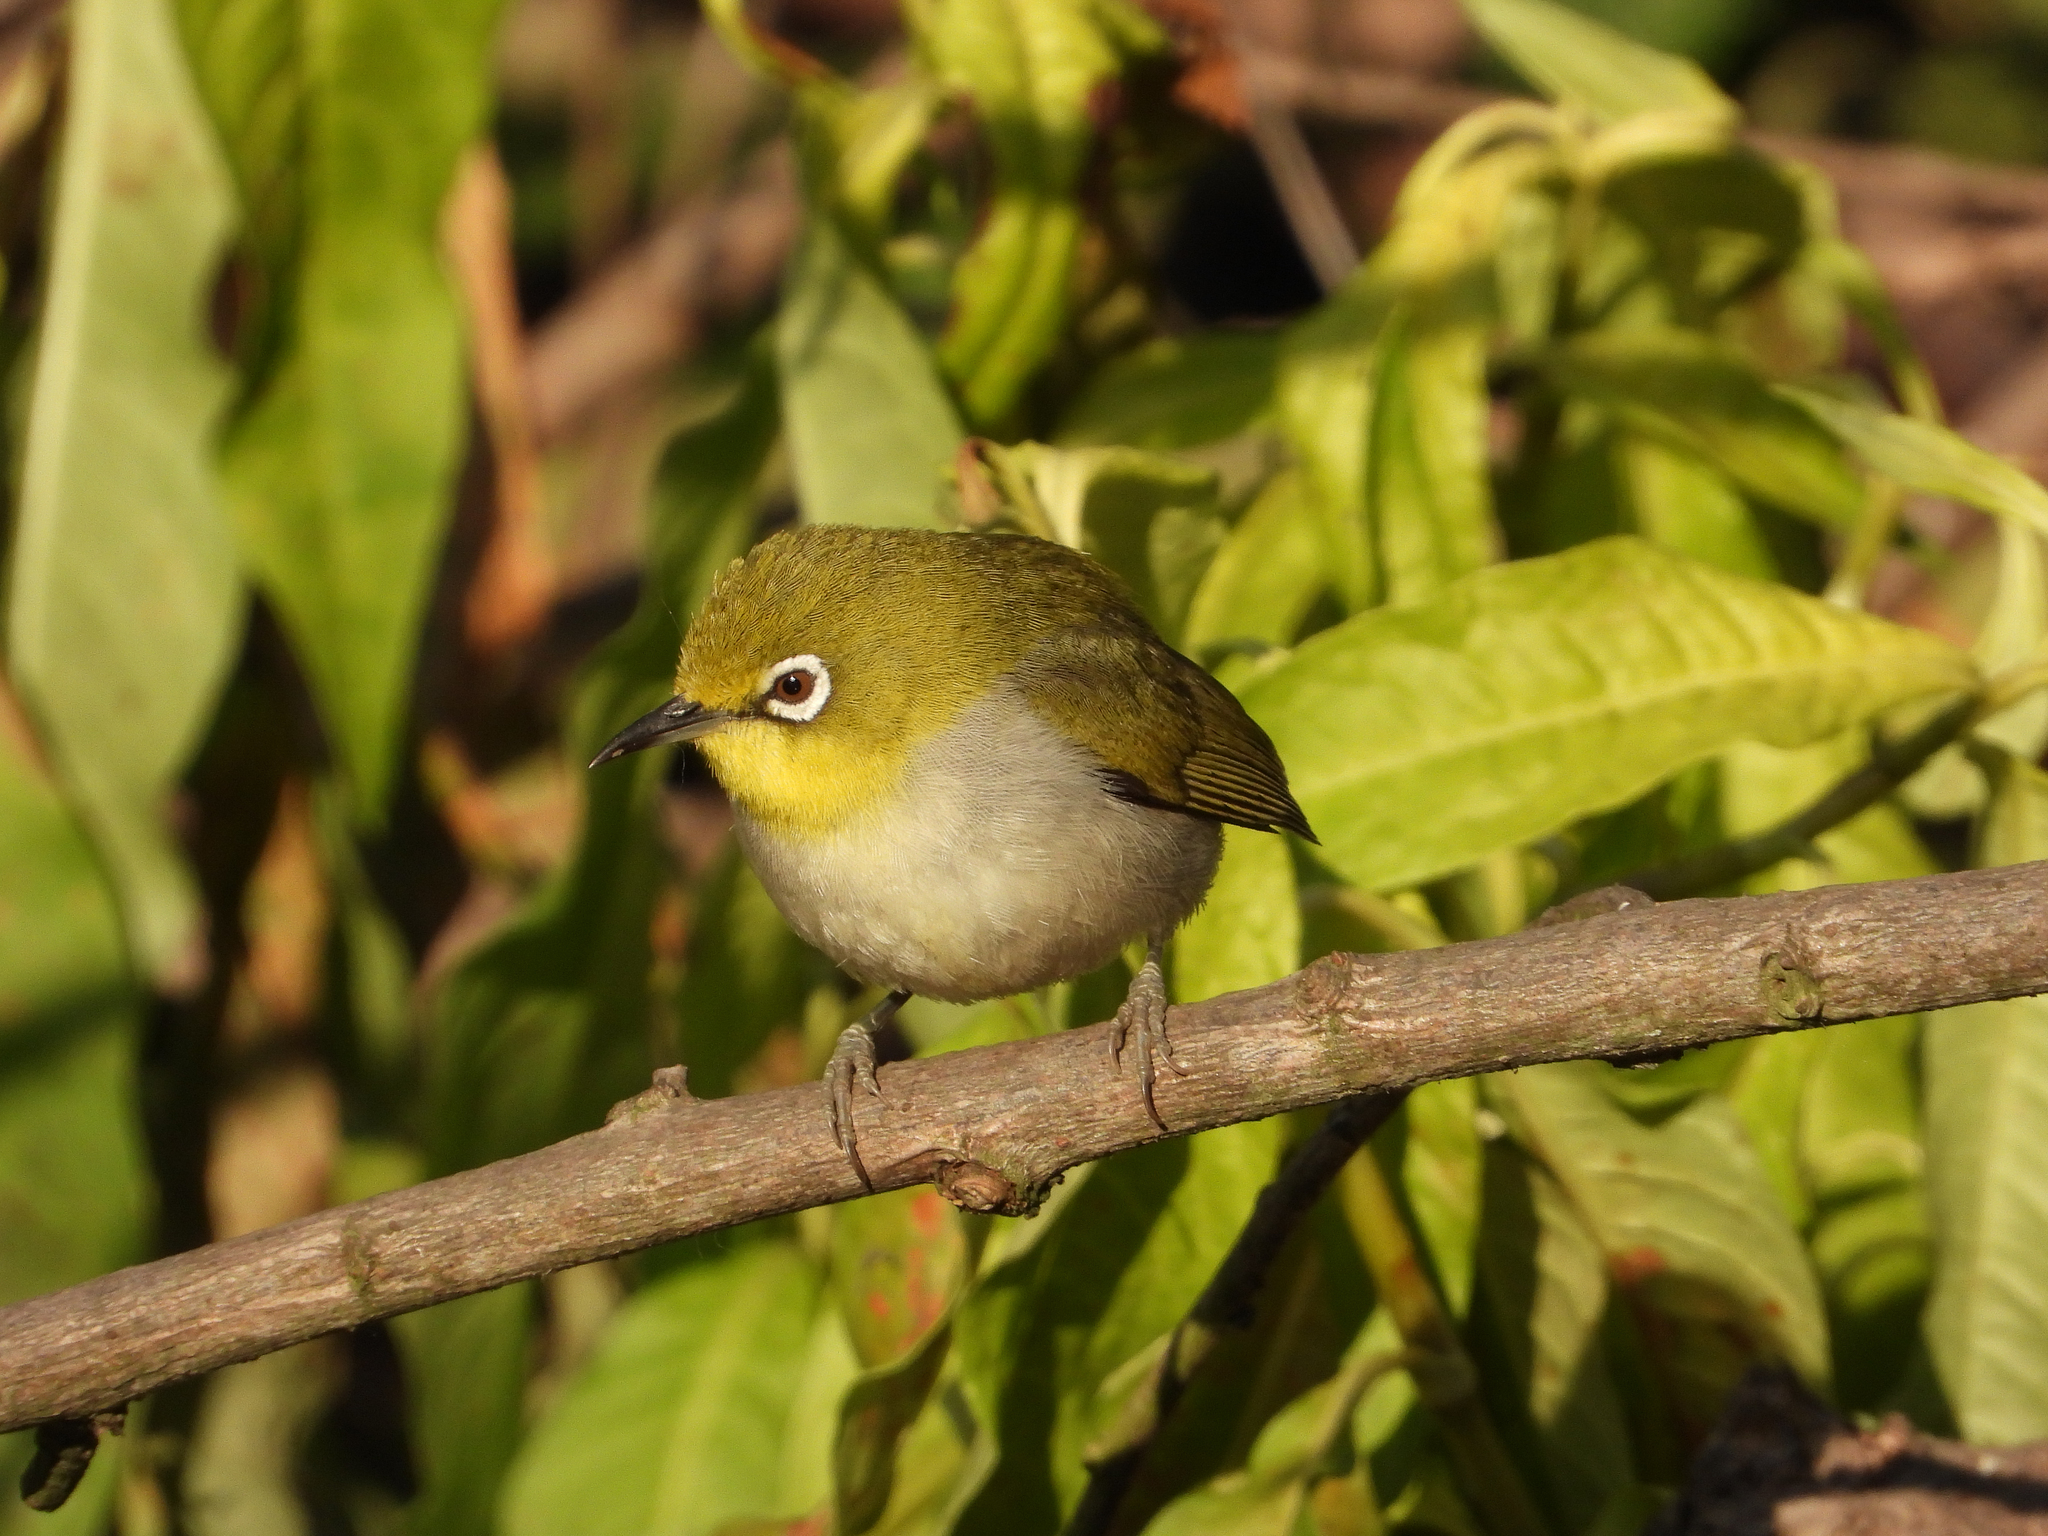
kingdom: Animalia
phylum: Chordata
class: Aves
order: Passeriformes
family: Zosteropidae
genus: Zosterops
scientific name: Zosterops simplex
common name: Swinhoe's white-eye
